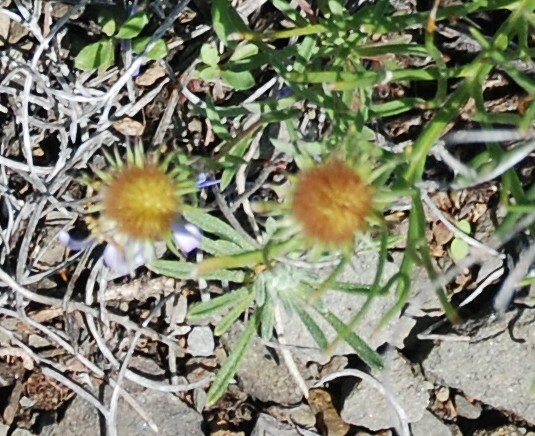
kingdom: Plantae
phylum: Tracheophyta
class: Magnoliopsida
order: Asterales
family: Asteraceae
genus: Aster
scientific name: Aster biennis
